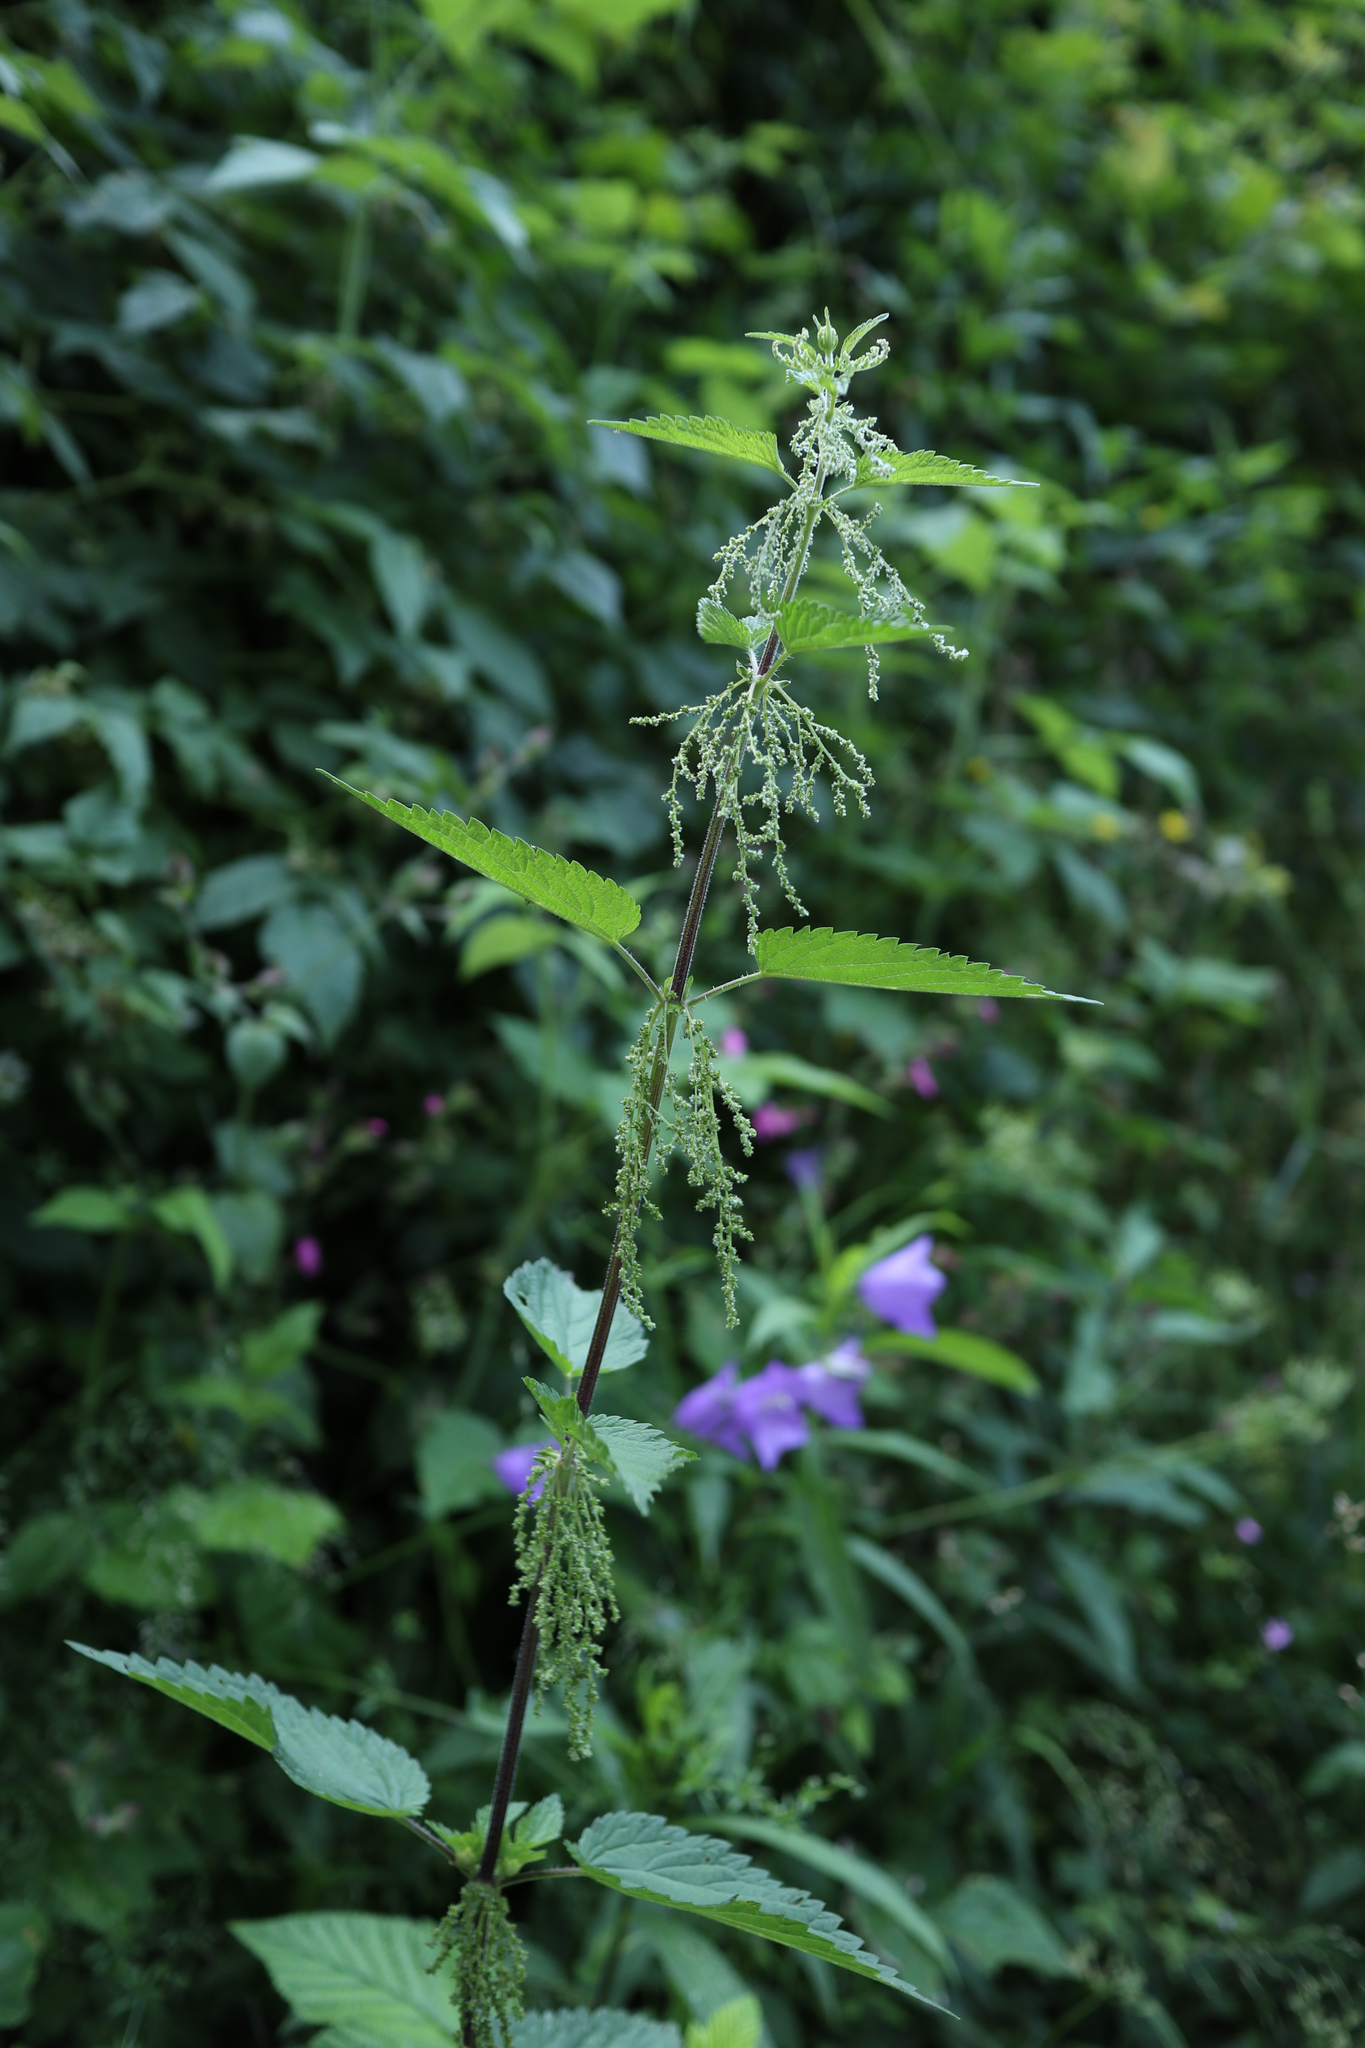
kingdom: Plantae
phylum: Tracheophyta
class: Magnoliopsida
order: Rosales
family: Urticaceae
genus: Urtica
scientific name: Urtica dioica
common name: Common nettle
